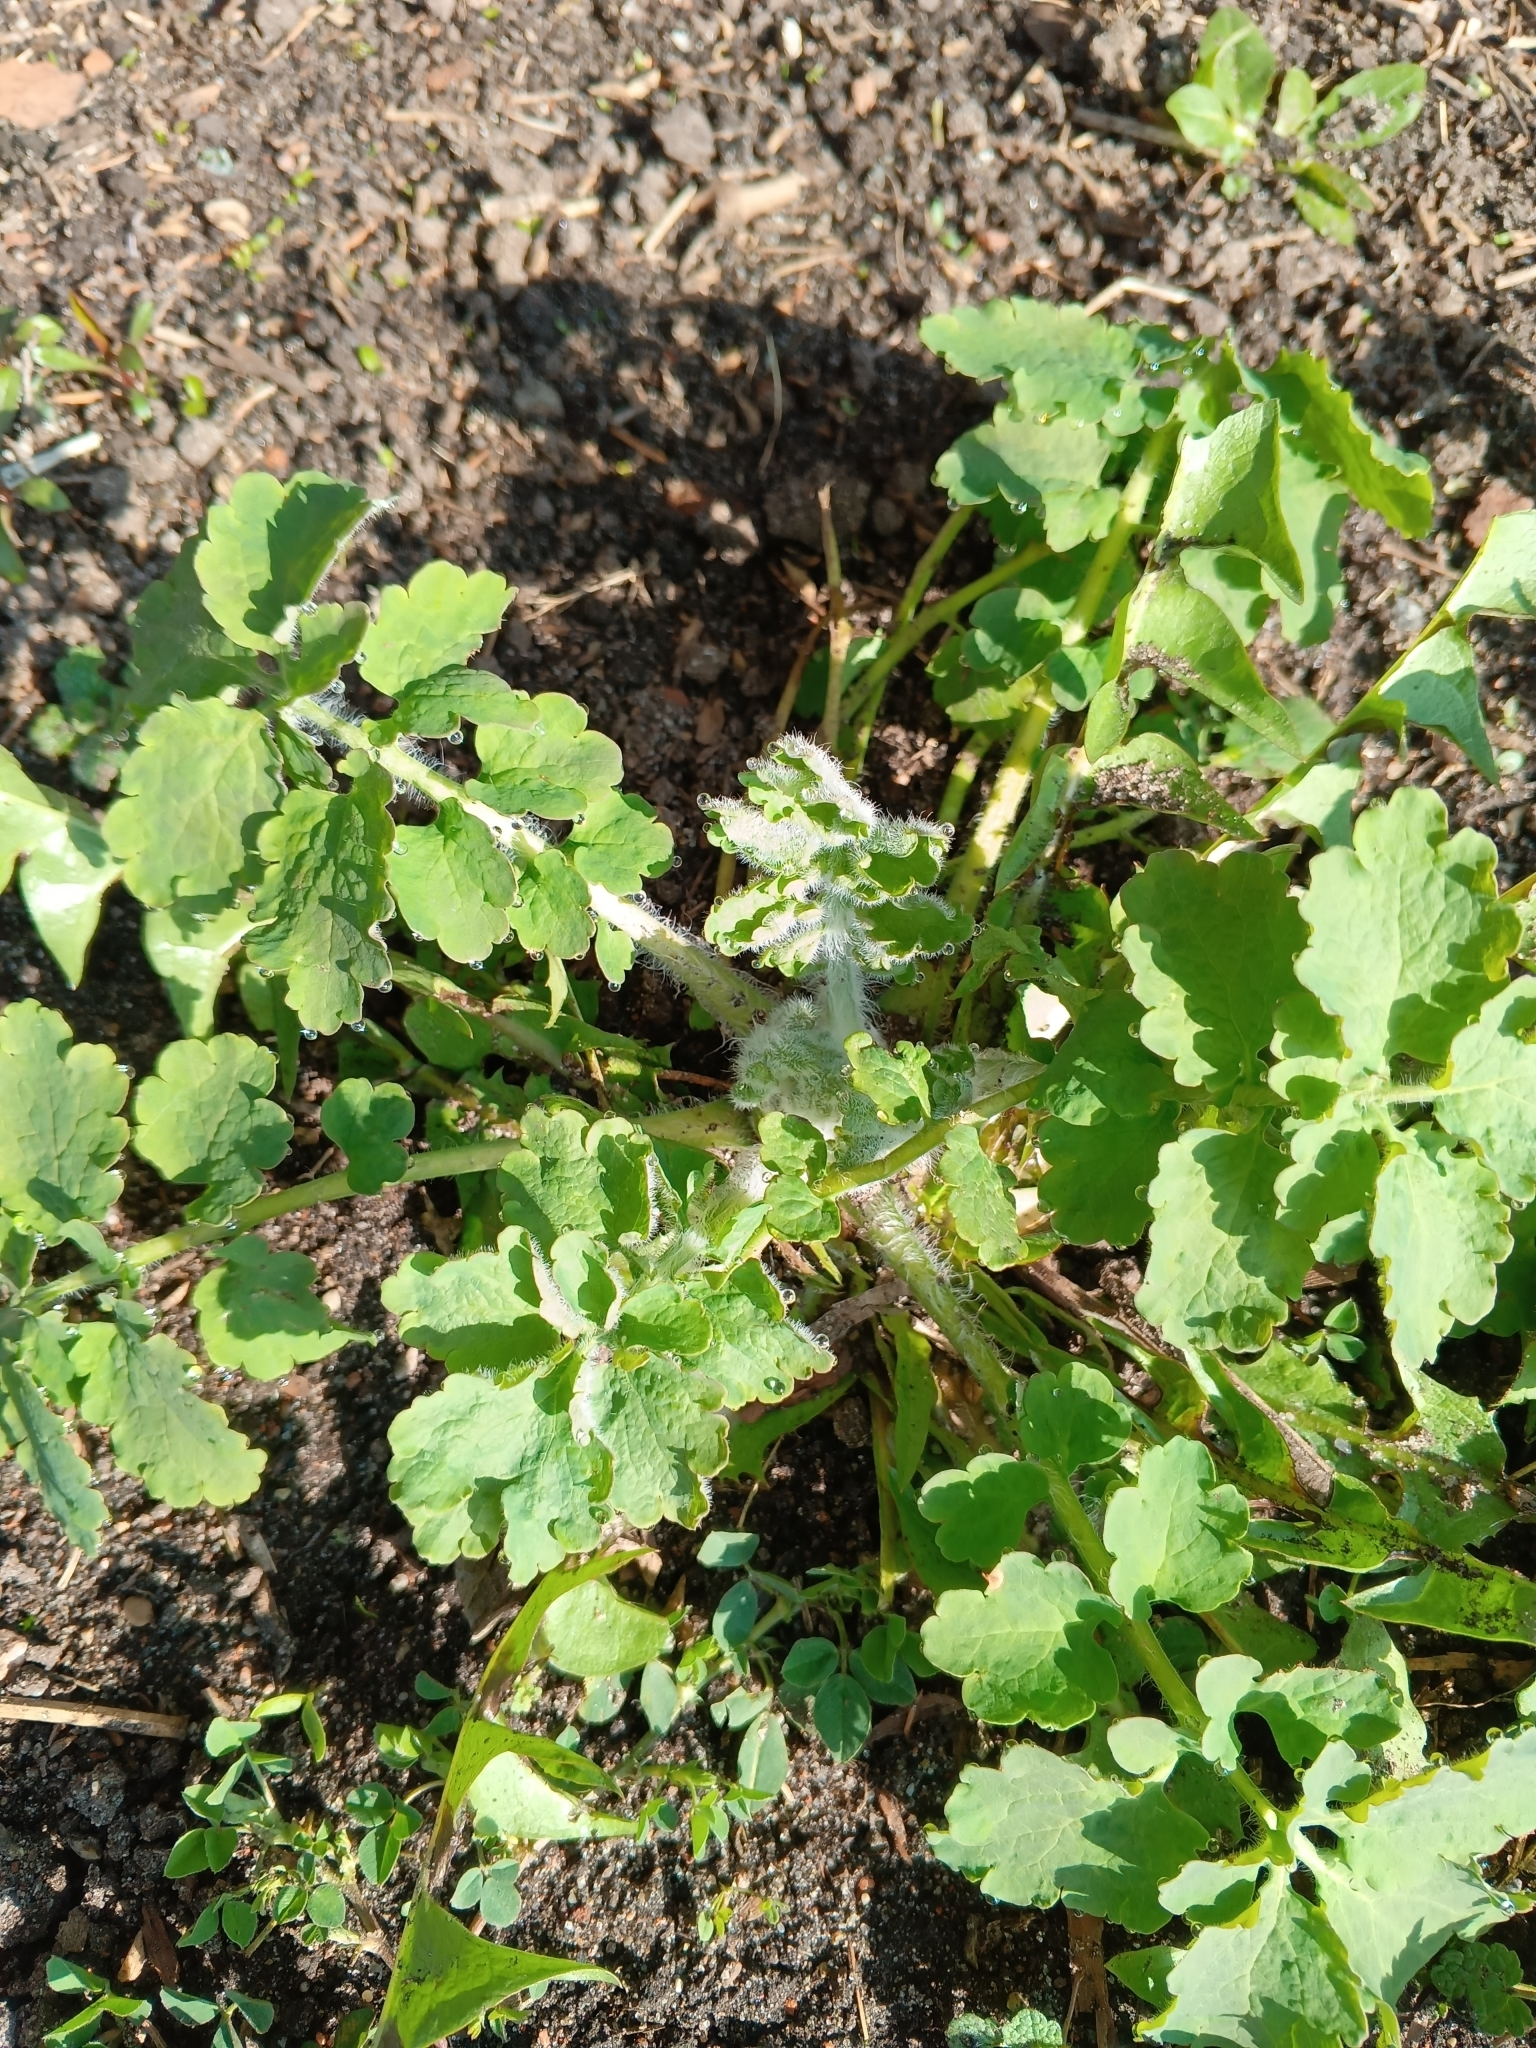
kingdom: Plantae
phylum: Tracheophyta
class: Magnoliopsida
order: Ranunculales
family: Papaveraceae
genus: Chelidonium
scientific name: Chelidonium majus
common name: Greater celandine
